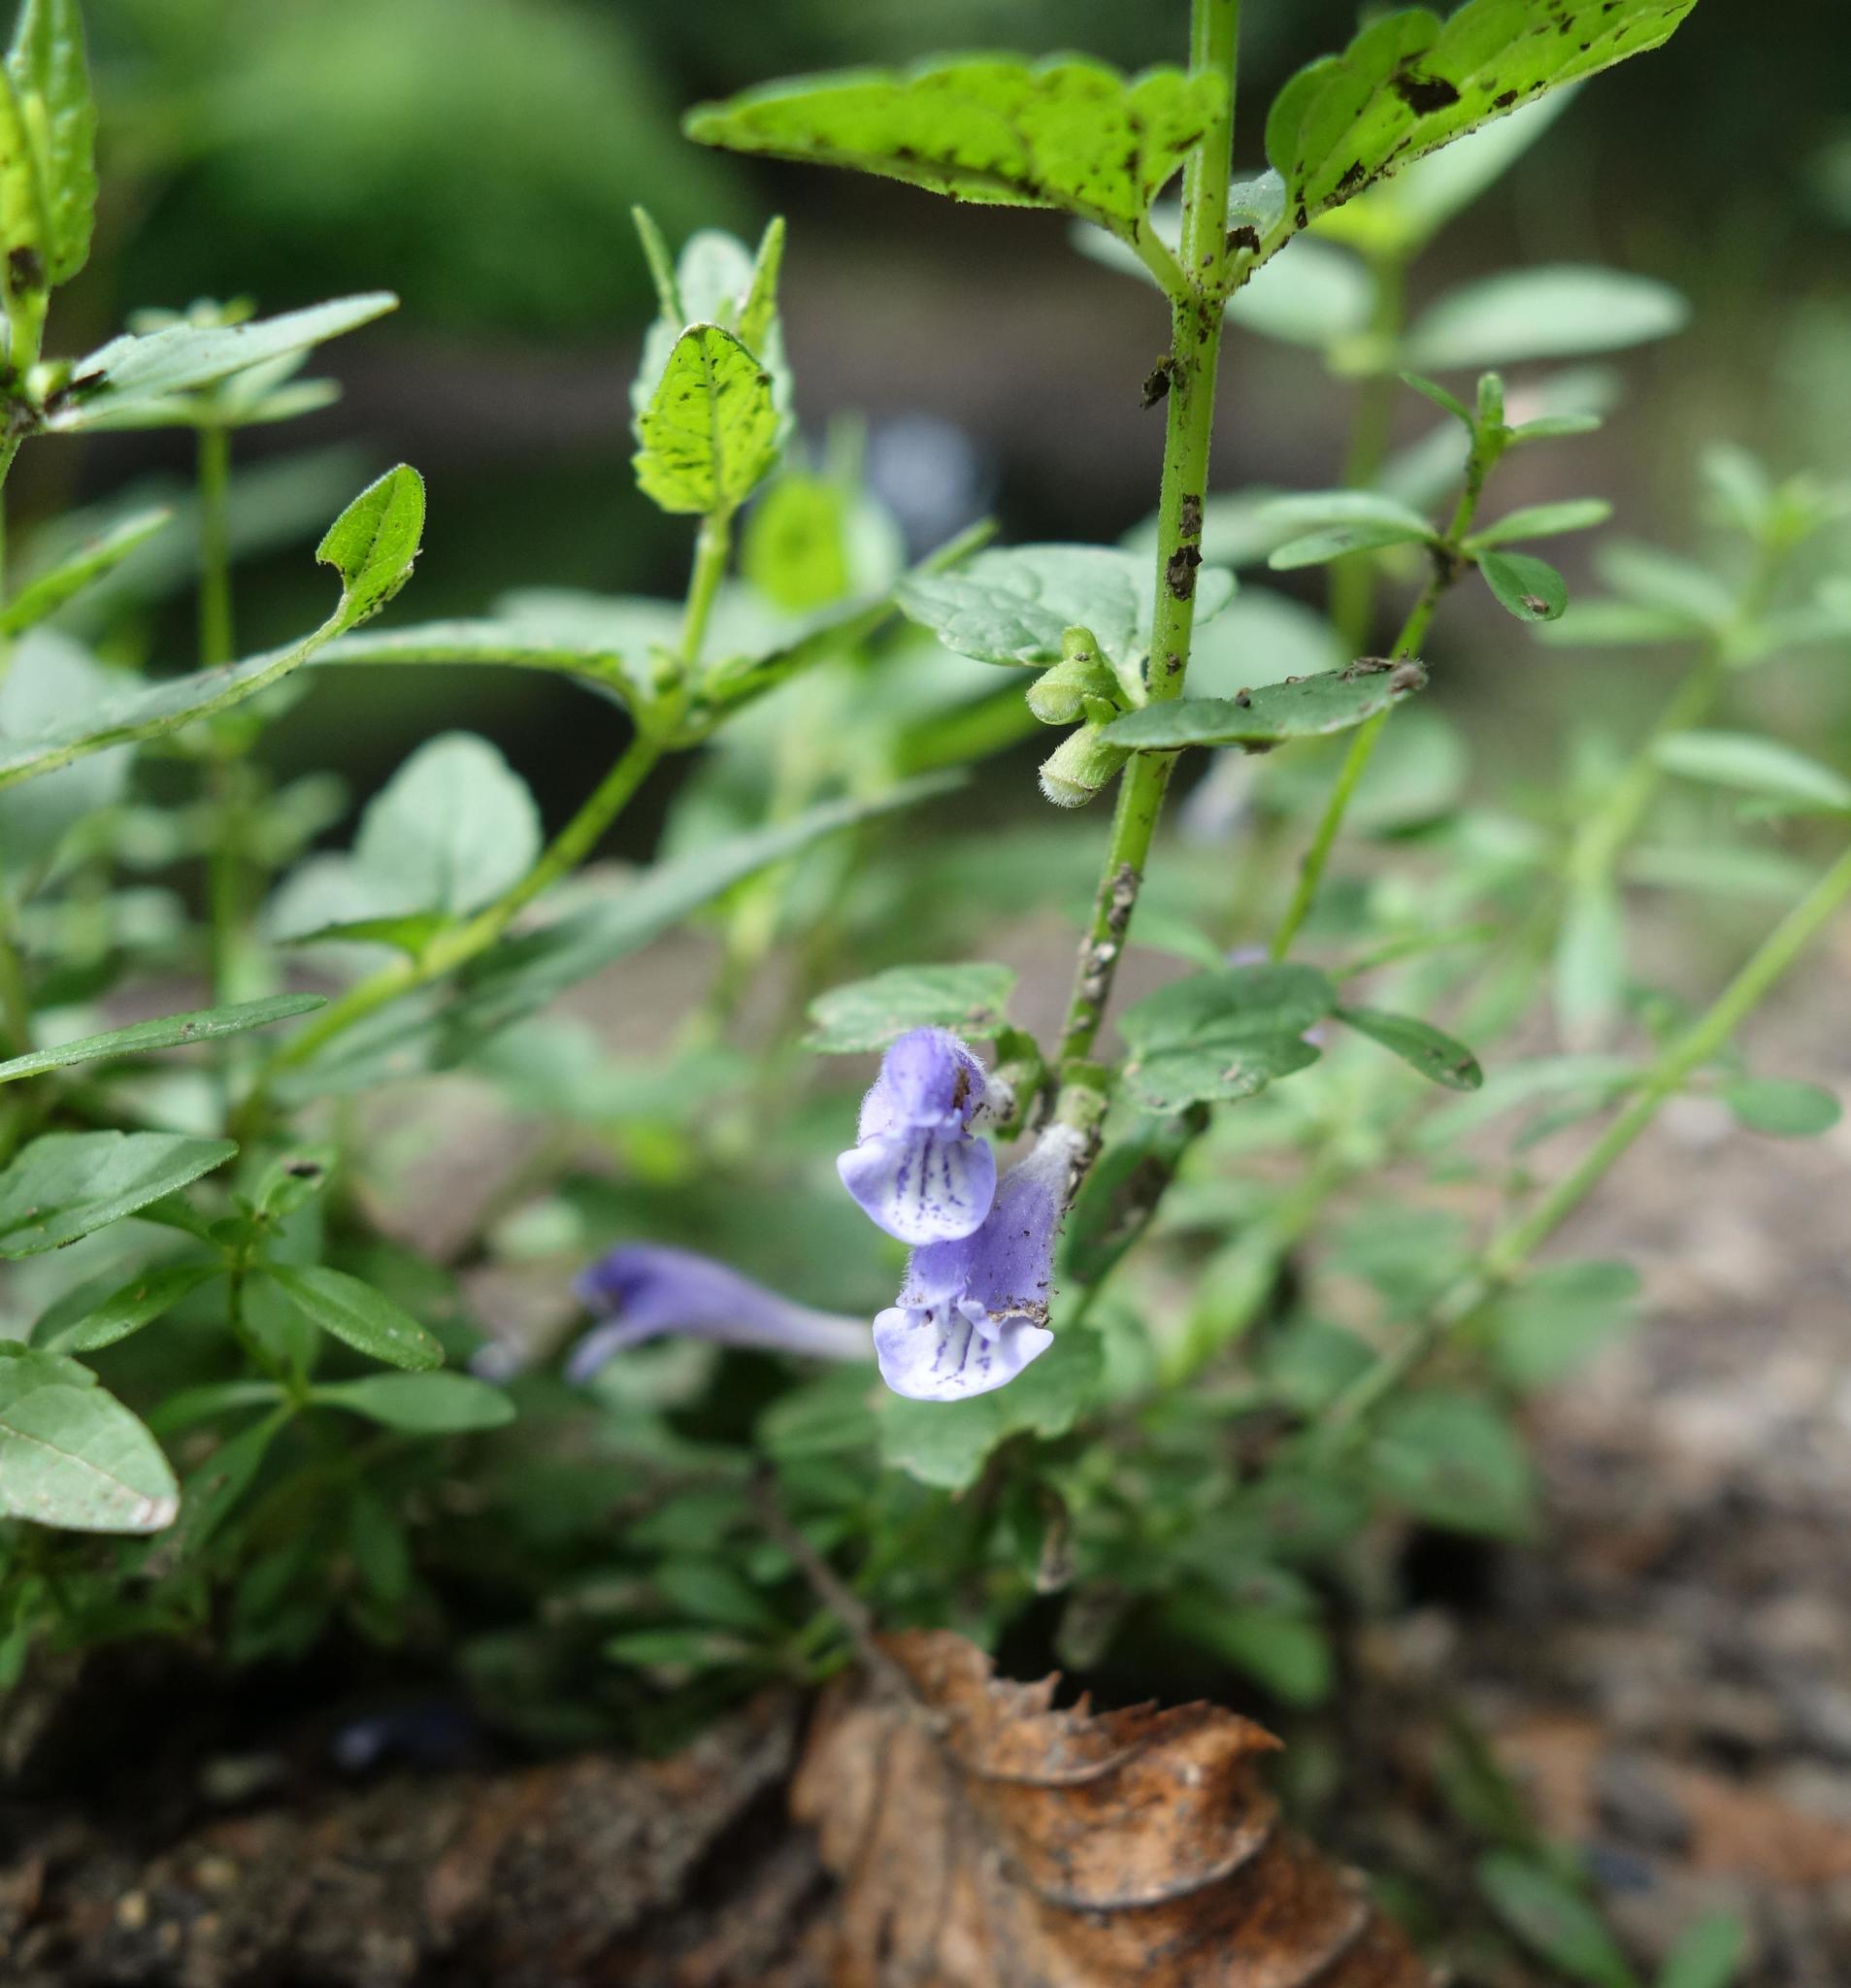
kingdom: Plantae
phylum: Tracheophyta
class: Magnoliopsida
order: Lamiales
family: Lamiaceae
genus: Scutellaria
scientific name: Scutellaria galericulata
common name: Skullcap
